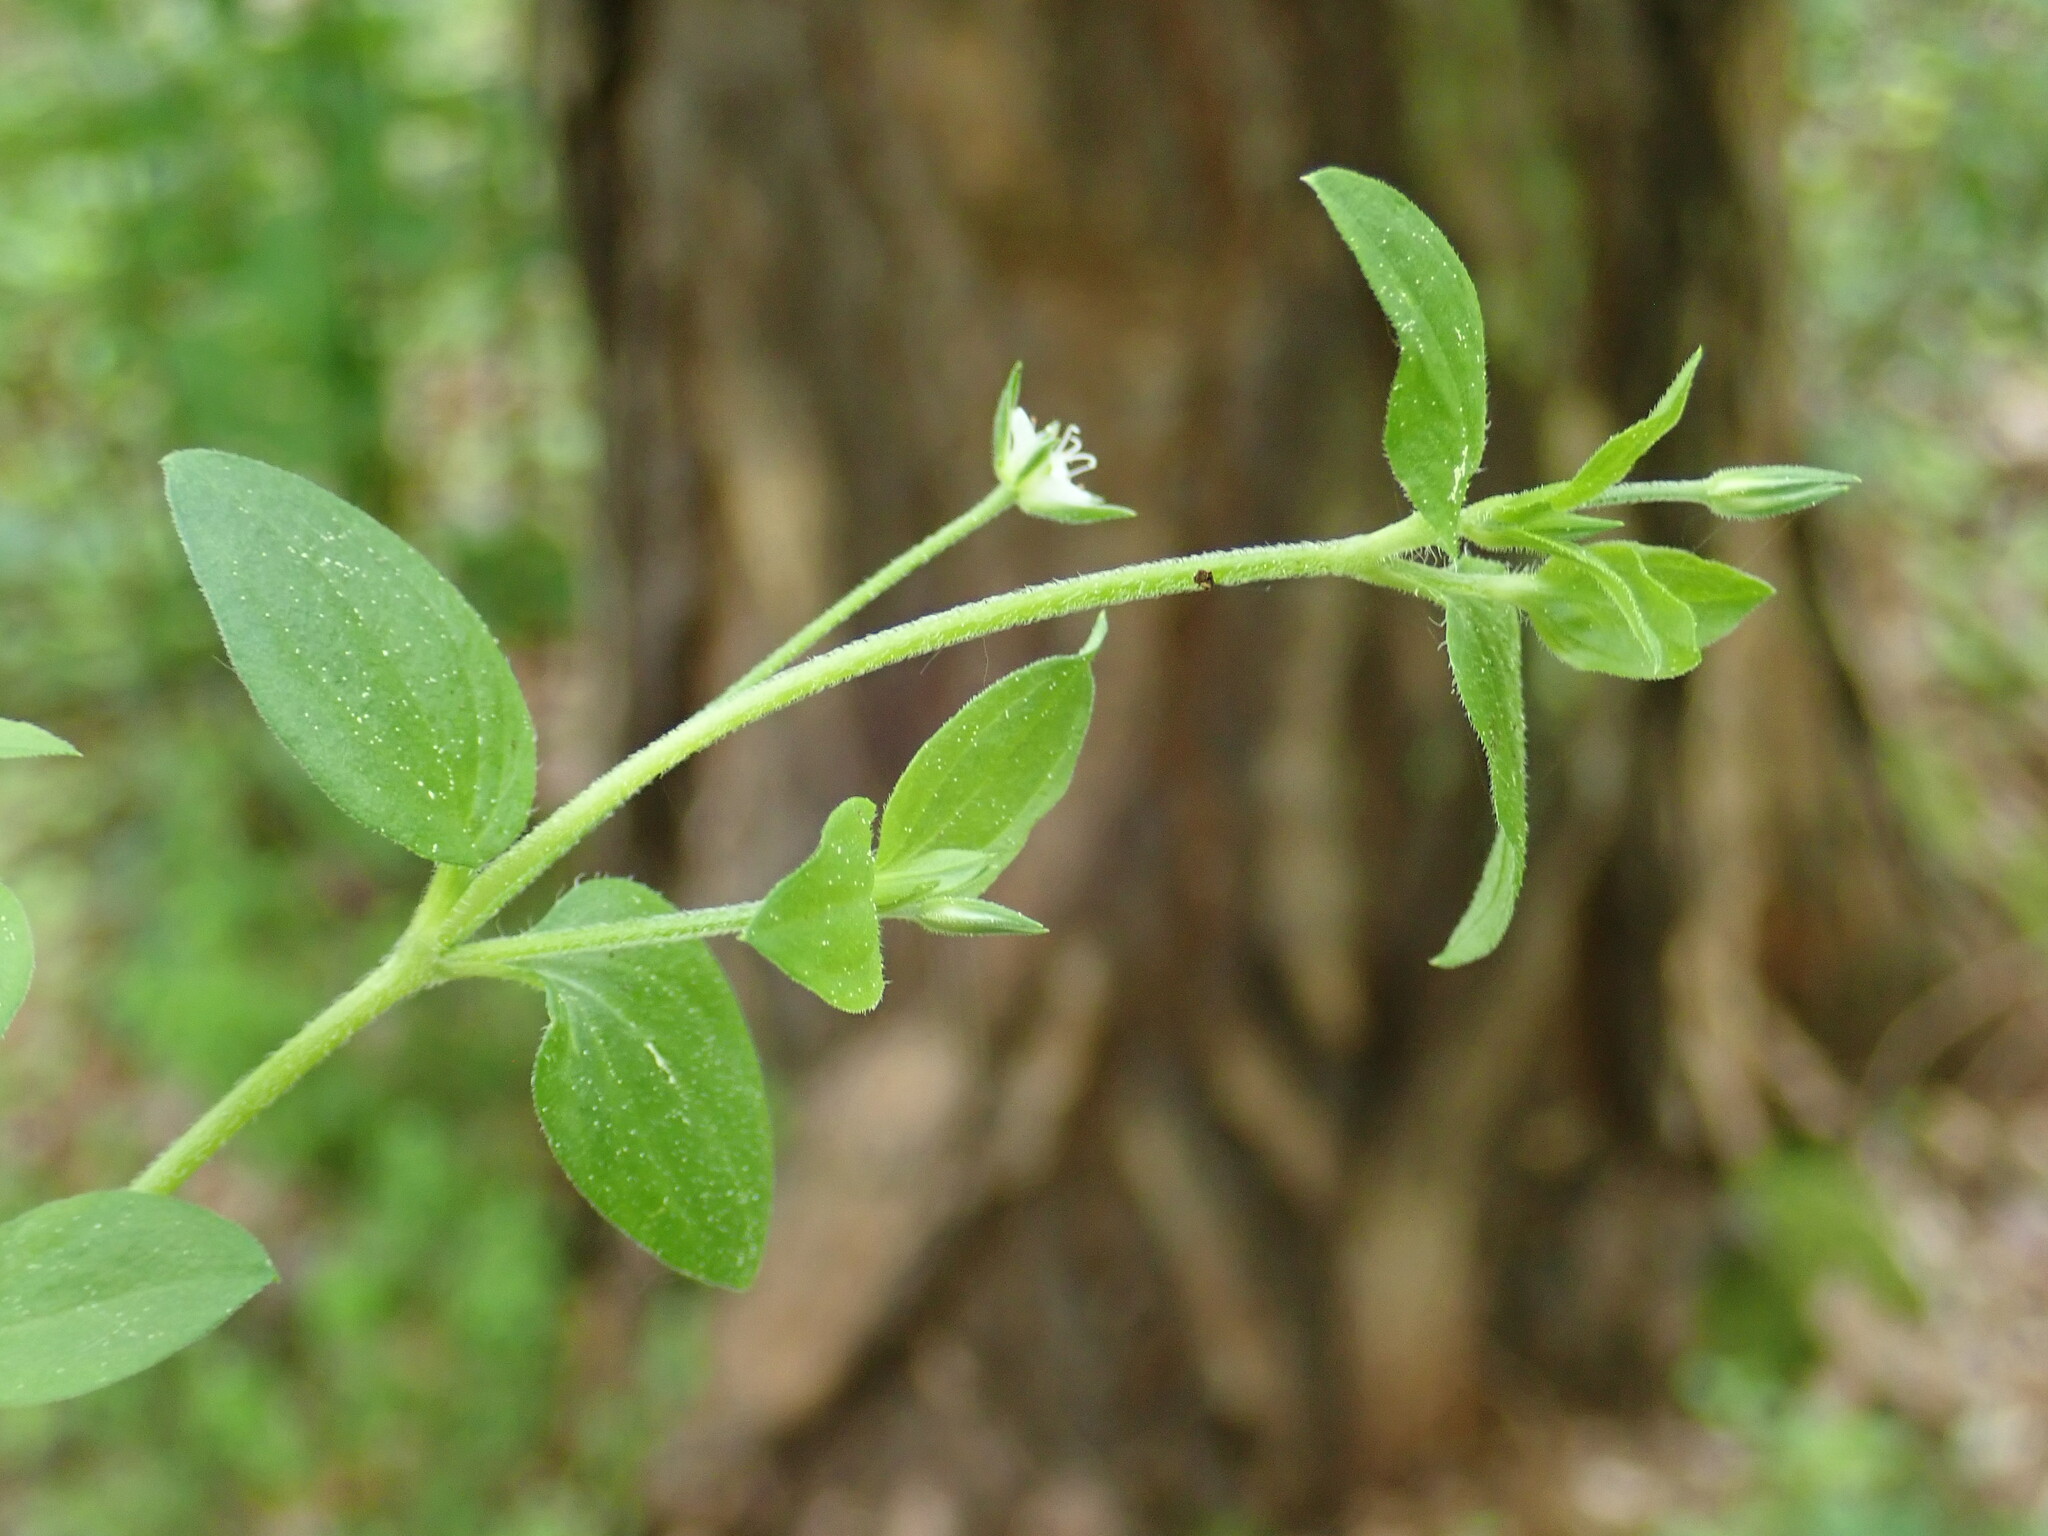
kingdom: Plantae
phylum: Tracheophyta
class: Magnoliopsida
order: Caryophyllales
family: Caryophyllaceae
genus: Moehringia
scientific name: Moehringia trinervia
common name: Three-nerved sandwort
